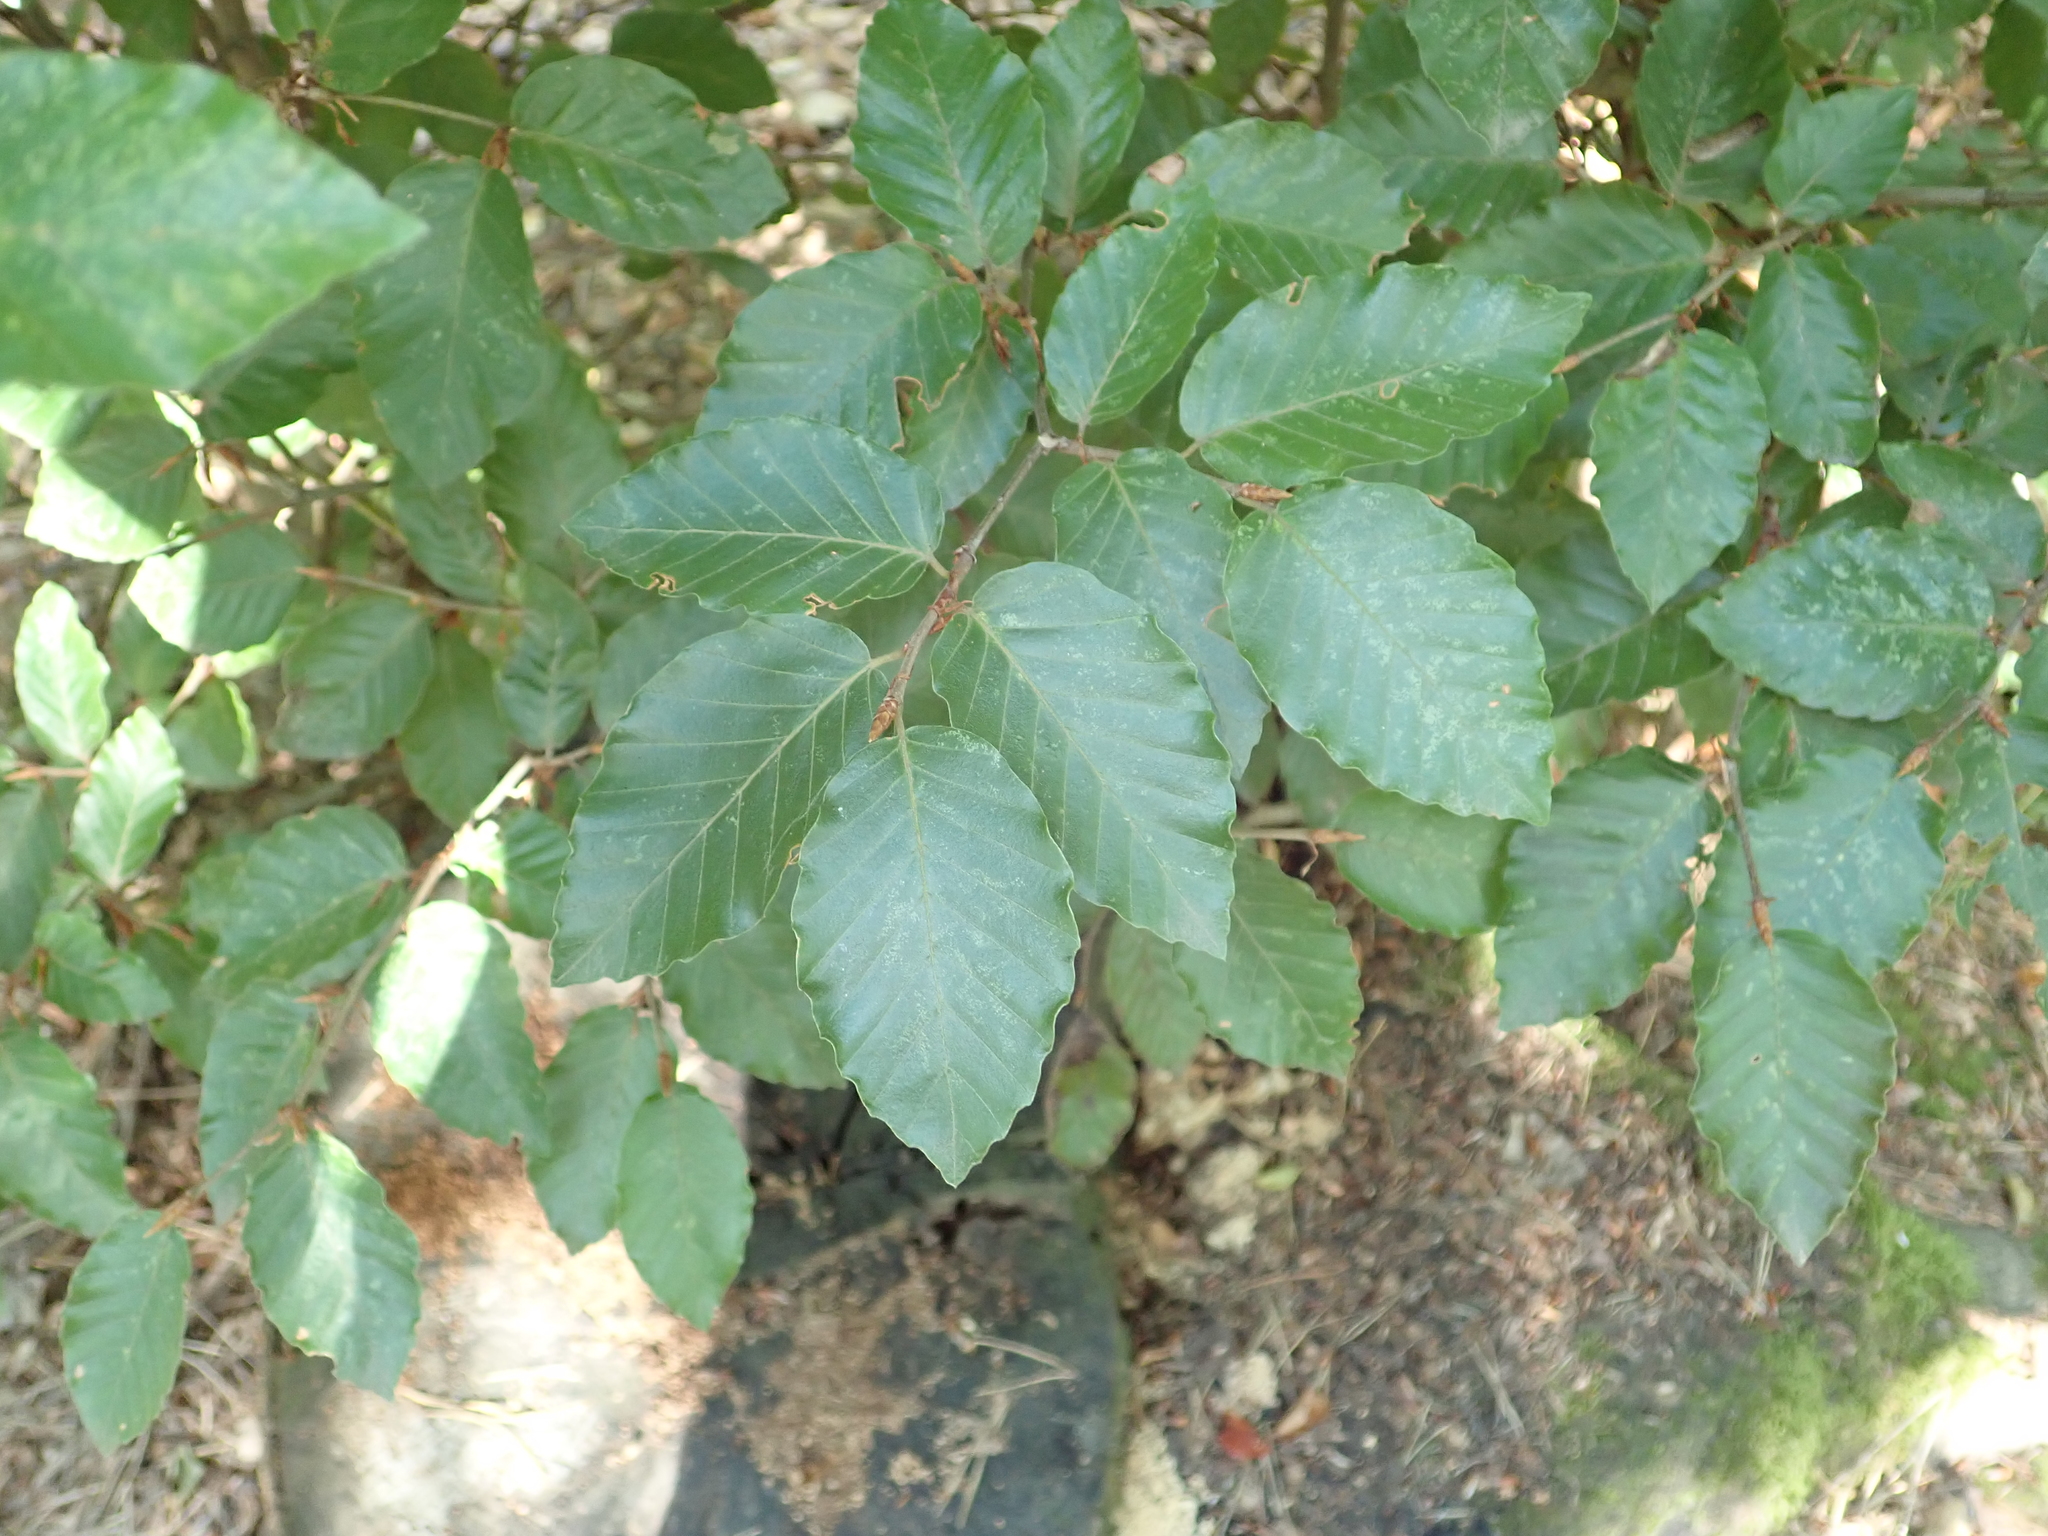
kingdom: Plantae
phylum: Tracheophyta
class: Magnoliopsida
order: Fagales
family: Fagaceae
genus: Fagus
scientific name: Fagus sylvatica
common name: Beech
